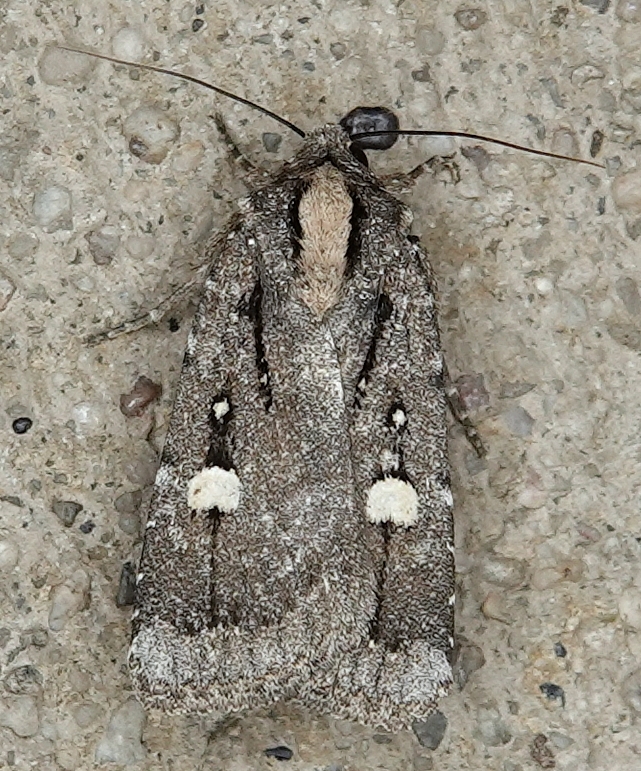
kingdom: Animalia
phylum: Arthropoda
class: Insecta
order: Lepidoptera
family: Noctuidae
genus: Abagrotis
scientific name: Abagrotis glenni
